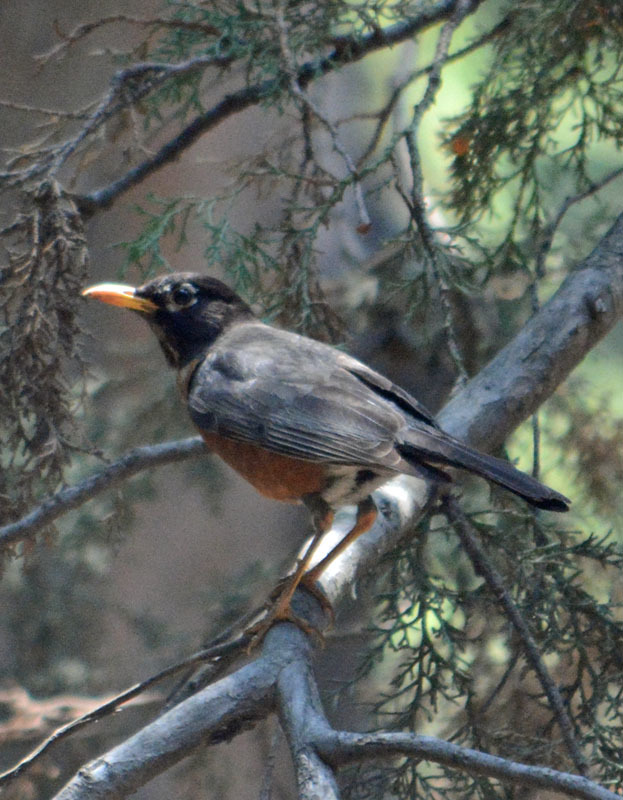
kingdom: Animalia
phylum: Chordata
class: Aves
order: Passeriformes
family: Turdidae
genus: Turdus
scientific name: Turdus migratorius
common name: American robin
